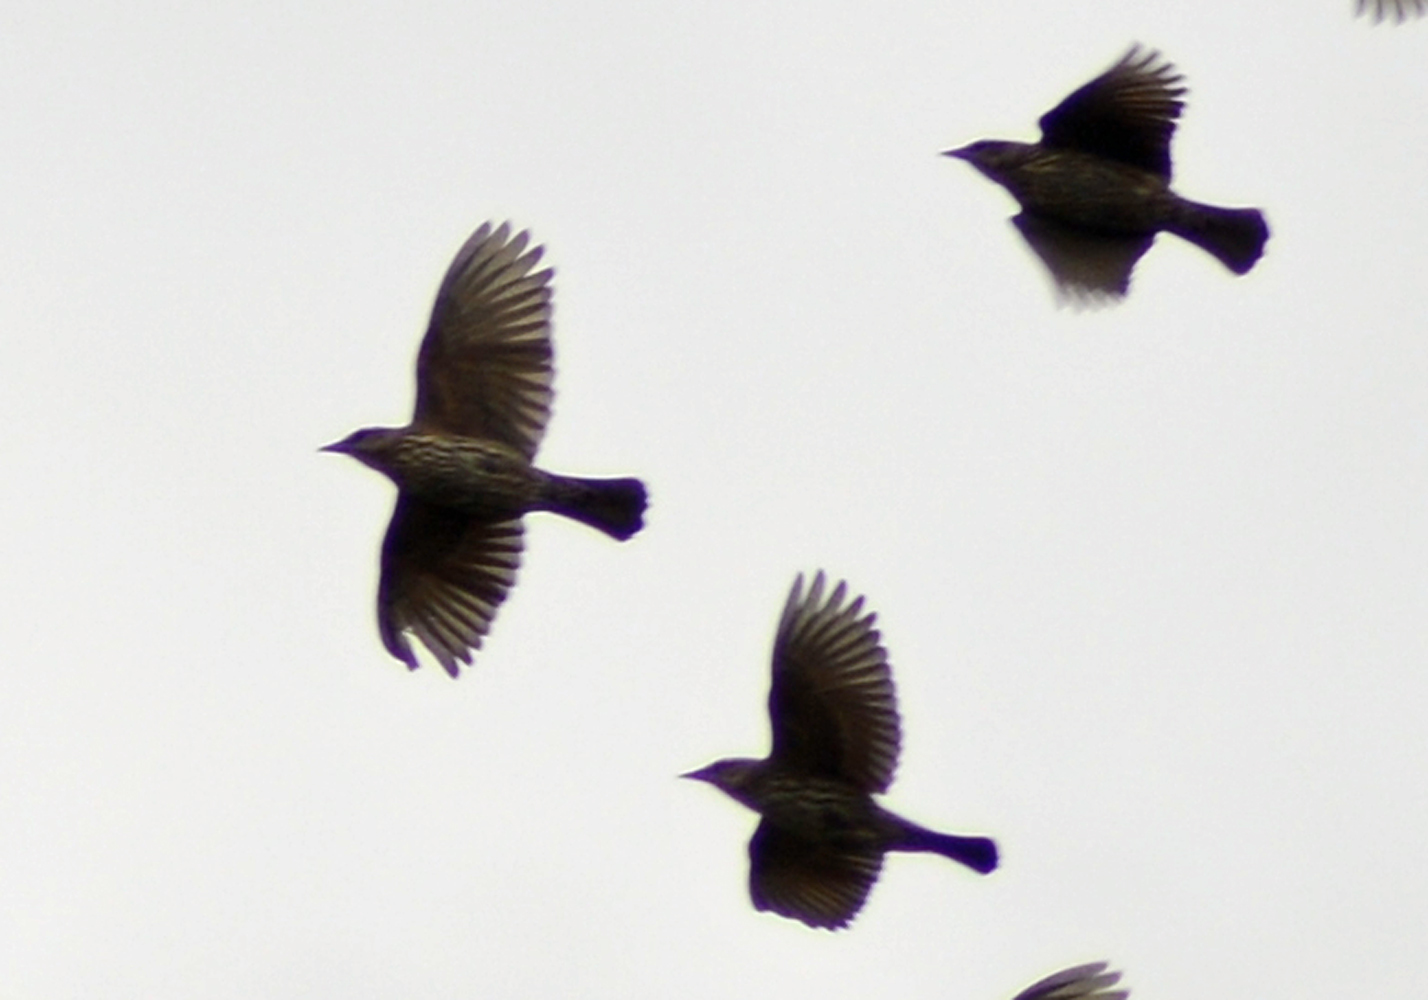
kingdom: Animalia
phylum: Chordata
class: Aves
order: Passeriformes
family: Icteridae
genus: Agelaius
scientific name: Agelaius phoeniceus
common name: Red-winged blackbird
